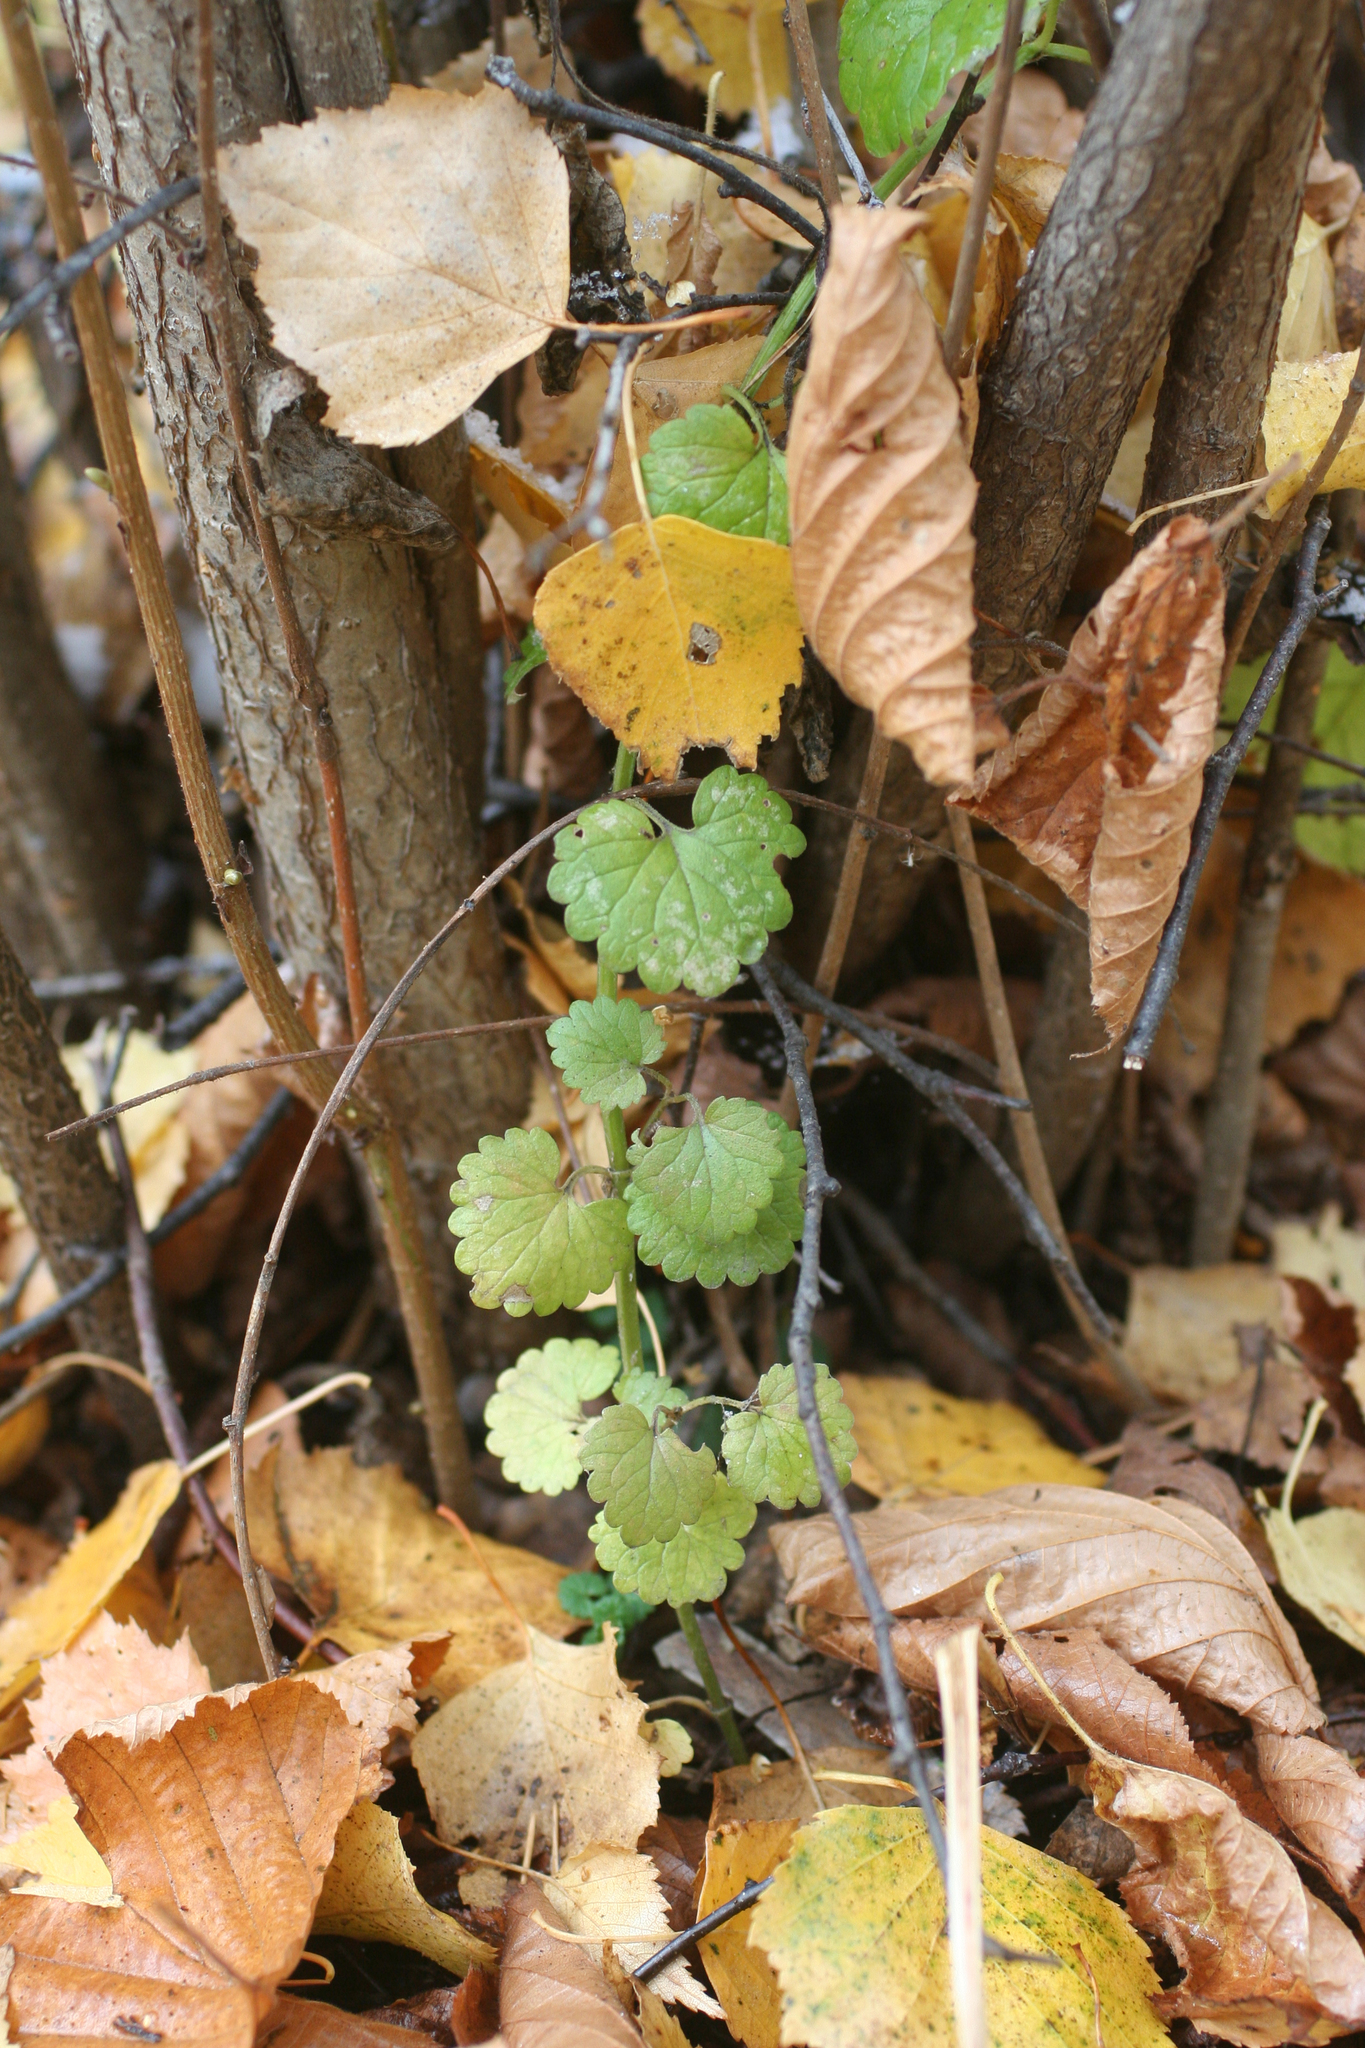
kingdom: Plantae
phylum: Tracheophyta
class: Magnoliopsida
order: Lamiales
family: Lamiaceae
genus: Glechoma
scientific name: Glechoma hederacea
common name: Ground ivy
